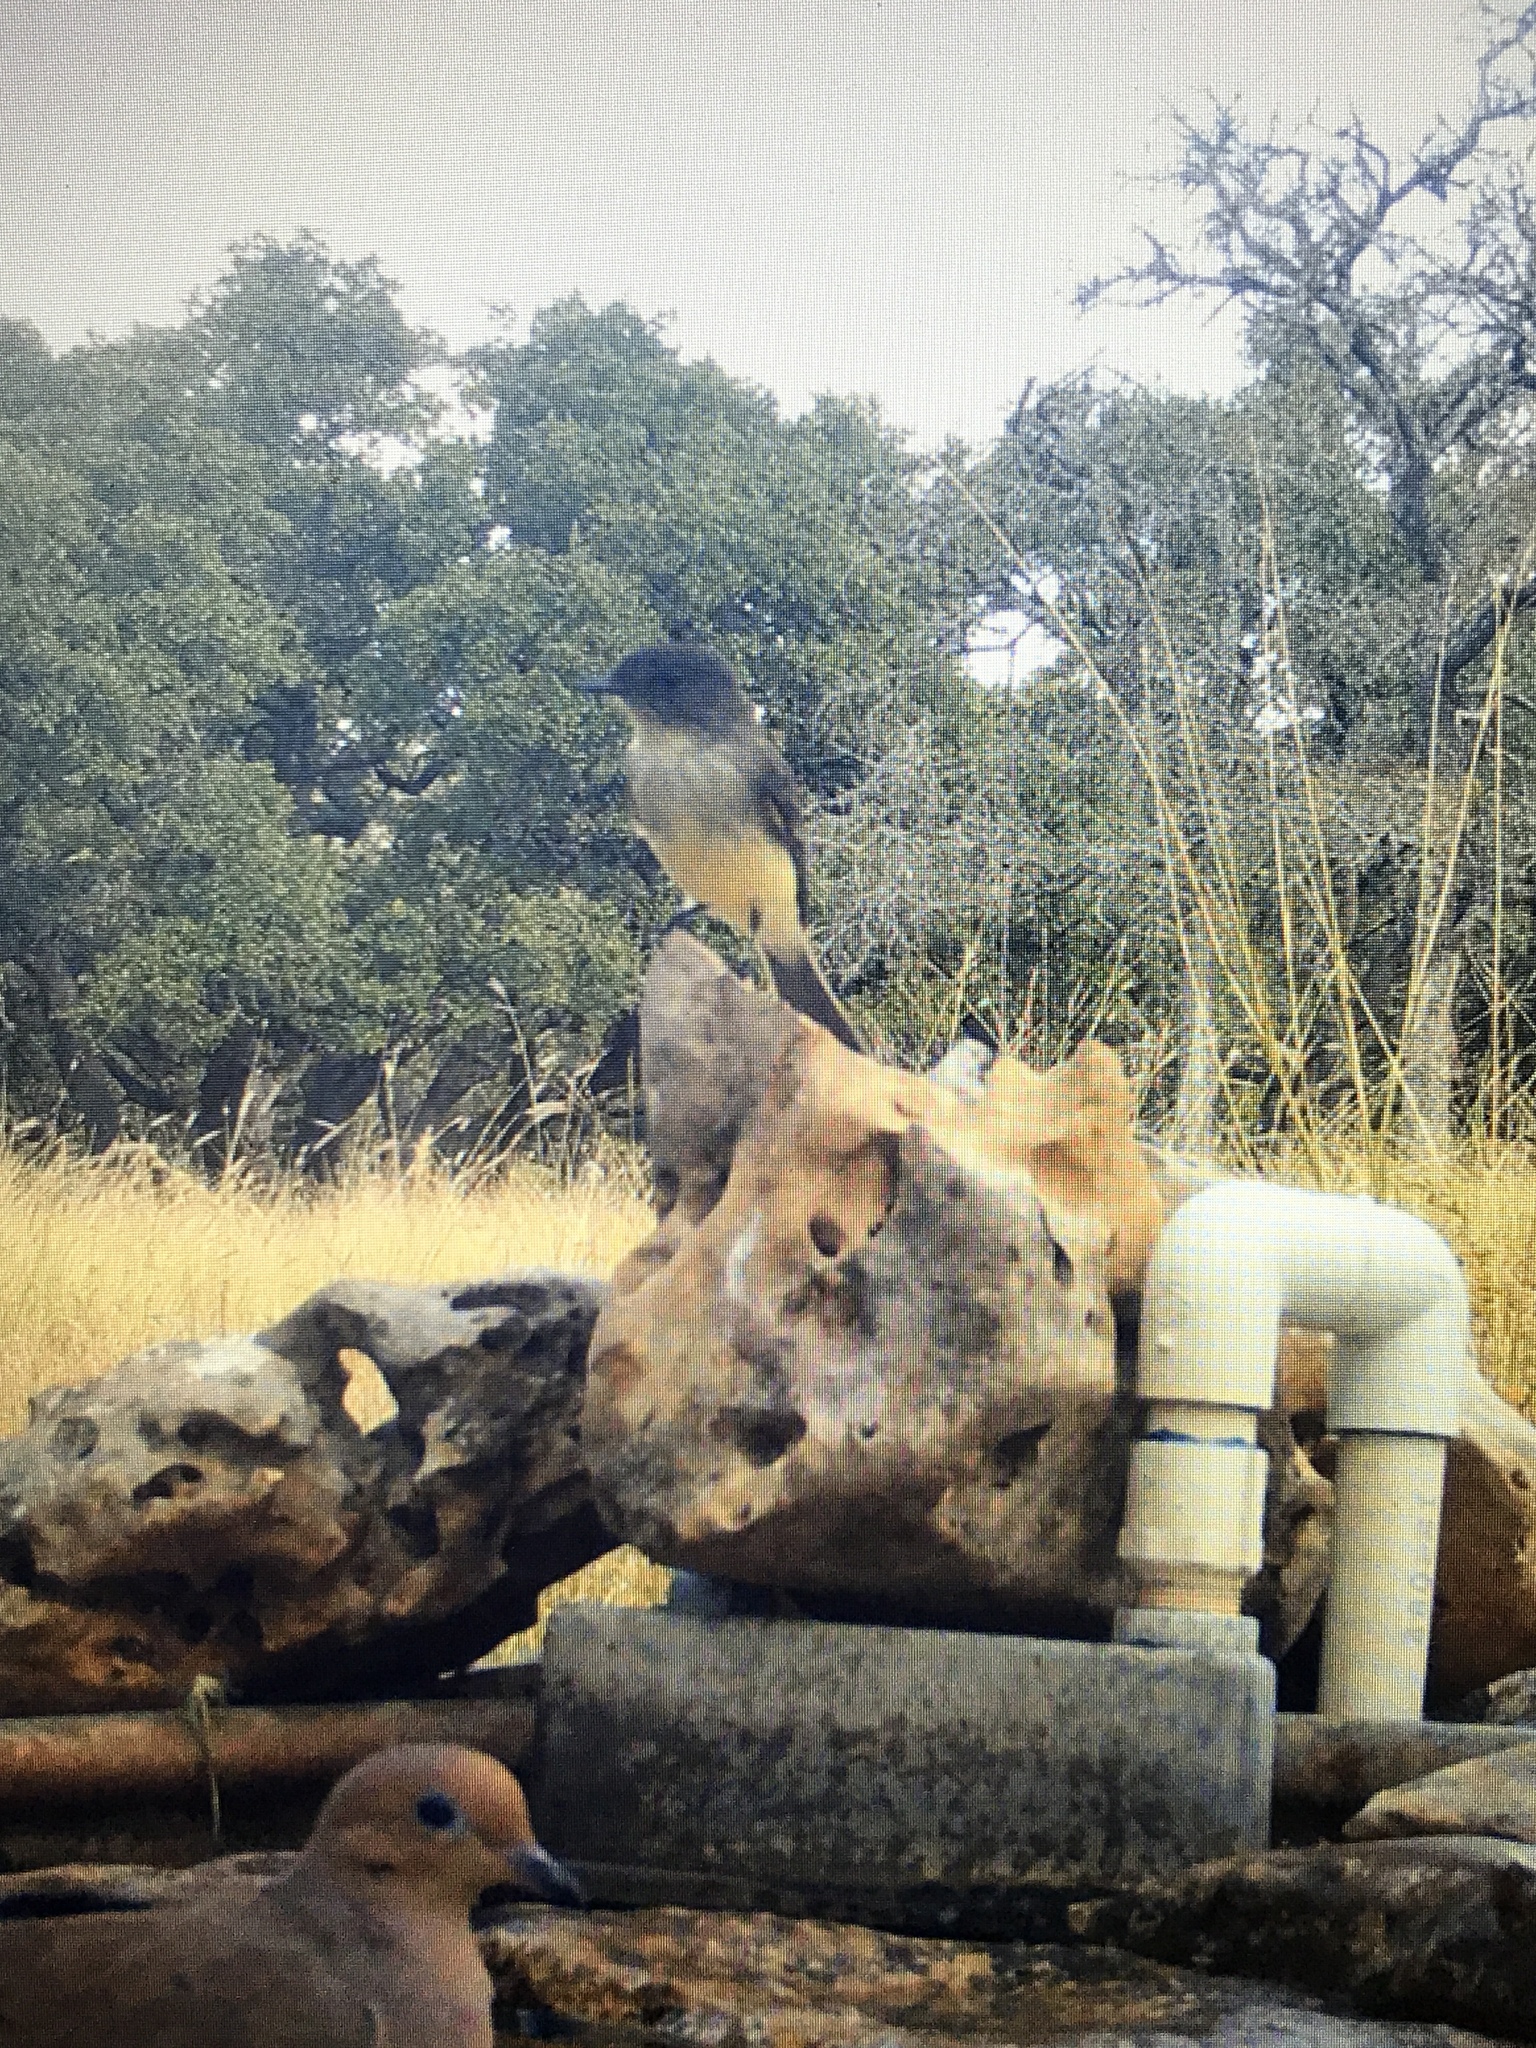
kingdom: Animalia
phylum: Chordata
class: Aves
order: Passeriformes
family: Tyrannidae
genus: Sayornis
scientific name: Sayornis phoebe
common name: Eastern phoebe
